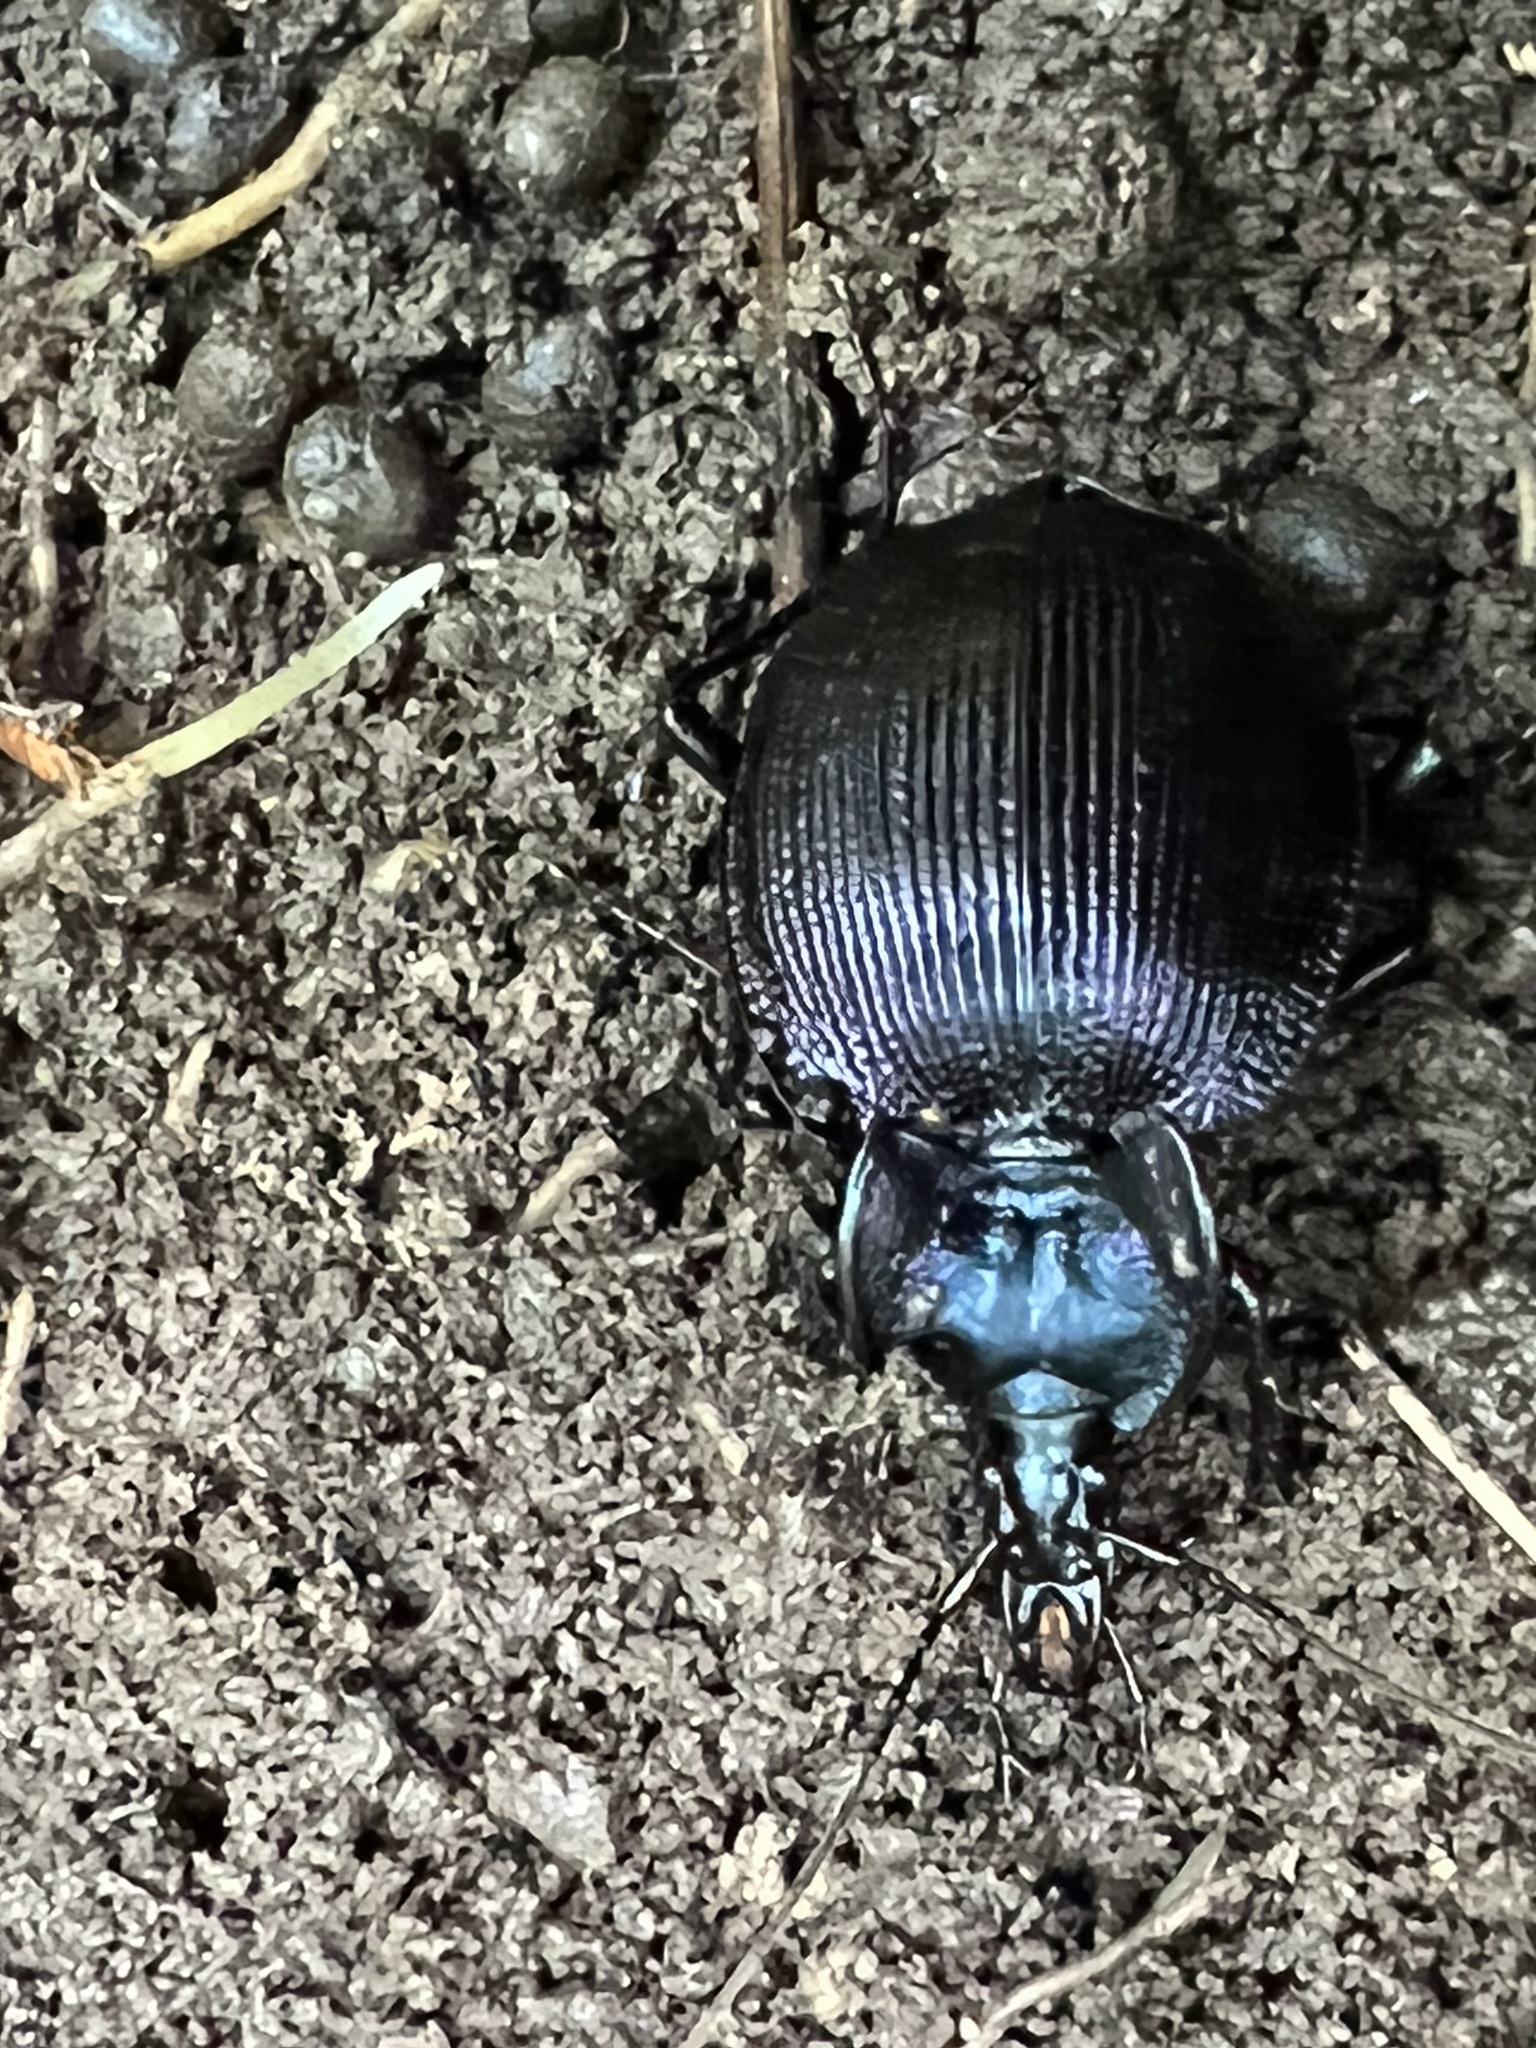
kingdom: Animalia
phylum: Arthropoda
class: Insecta
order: Coleoptera
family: Carabidae
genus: Scaphinotus
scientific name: Scaphinotus unicolor
